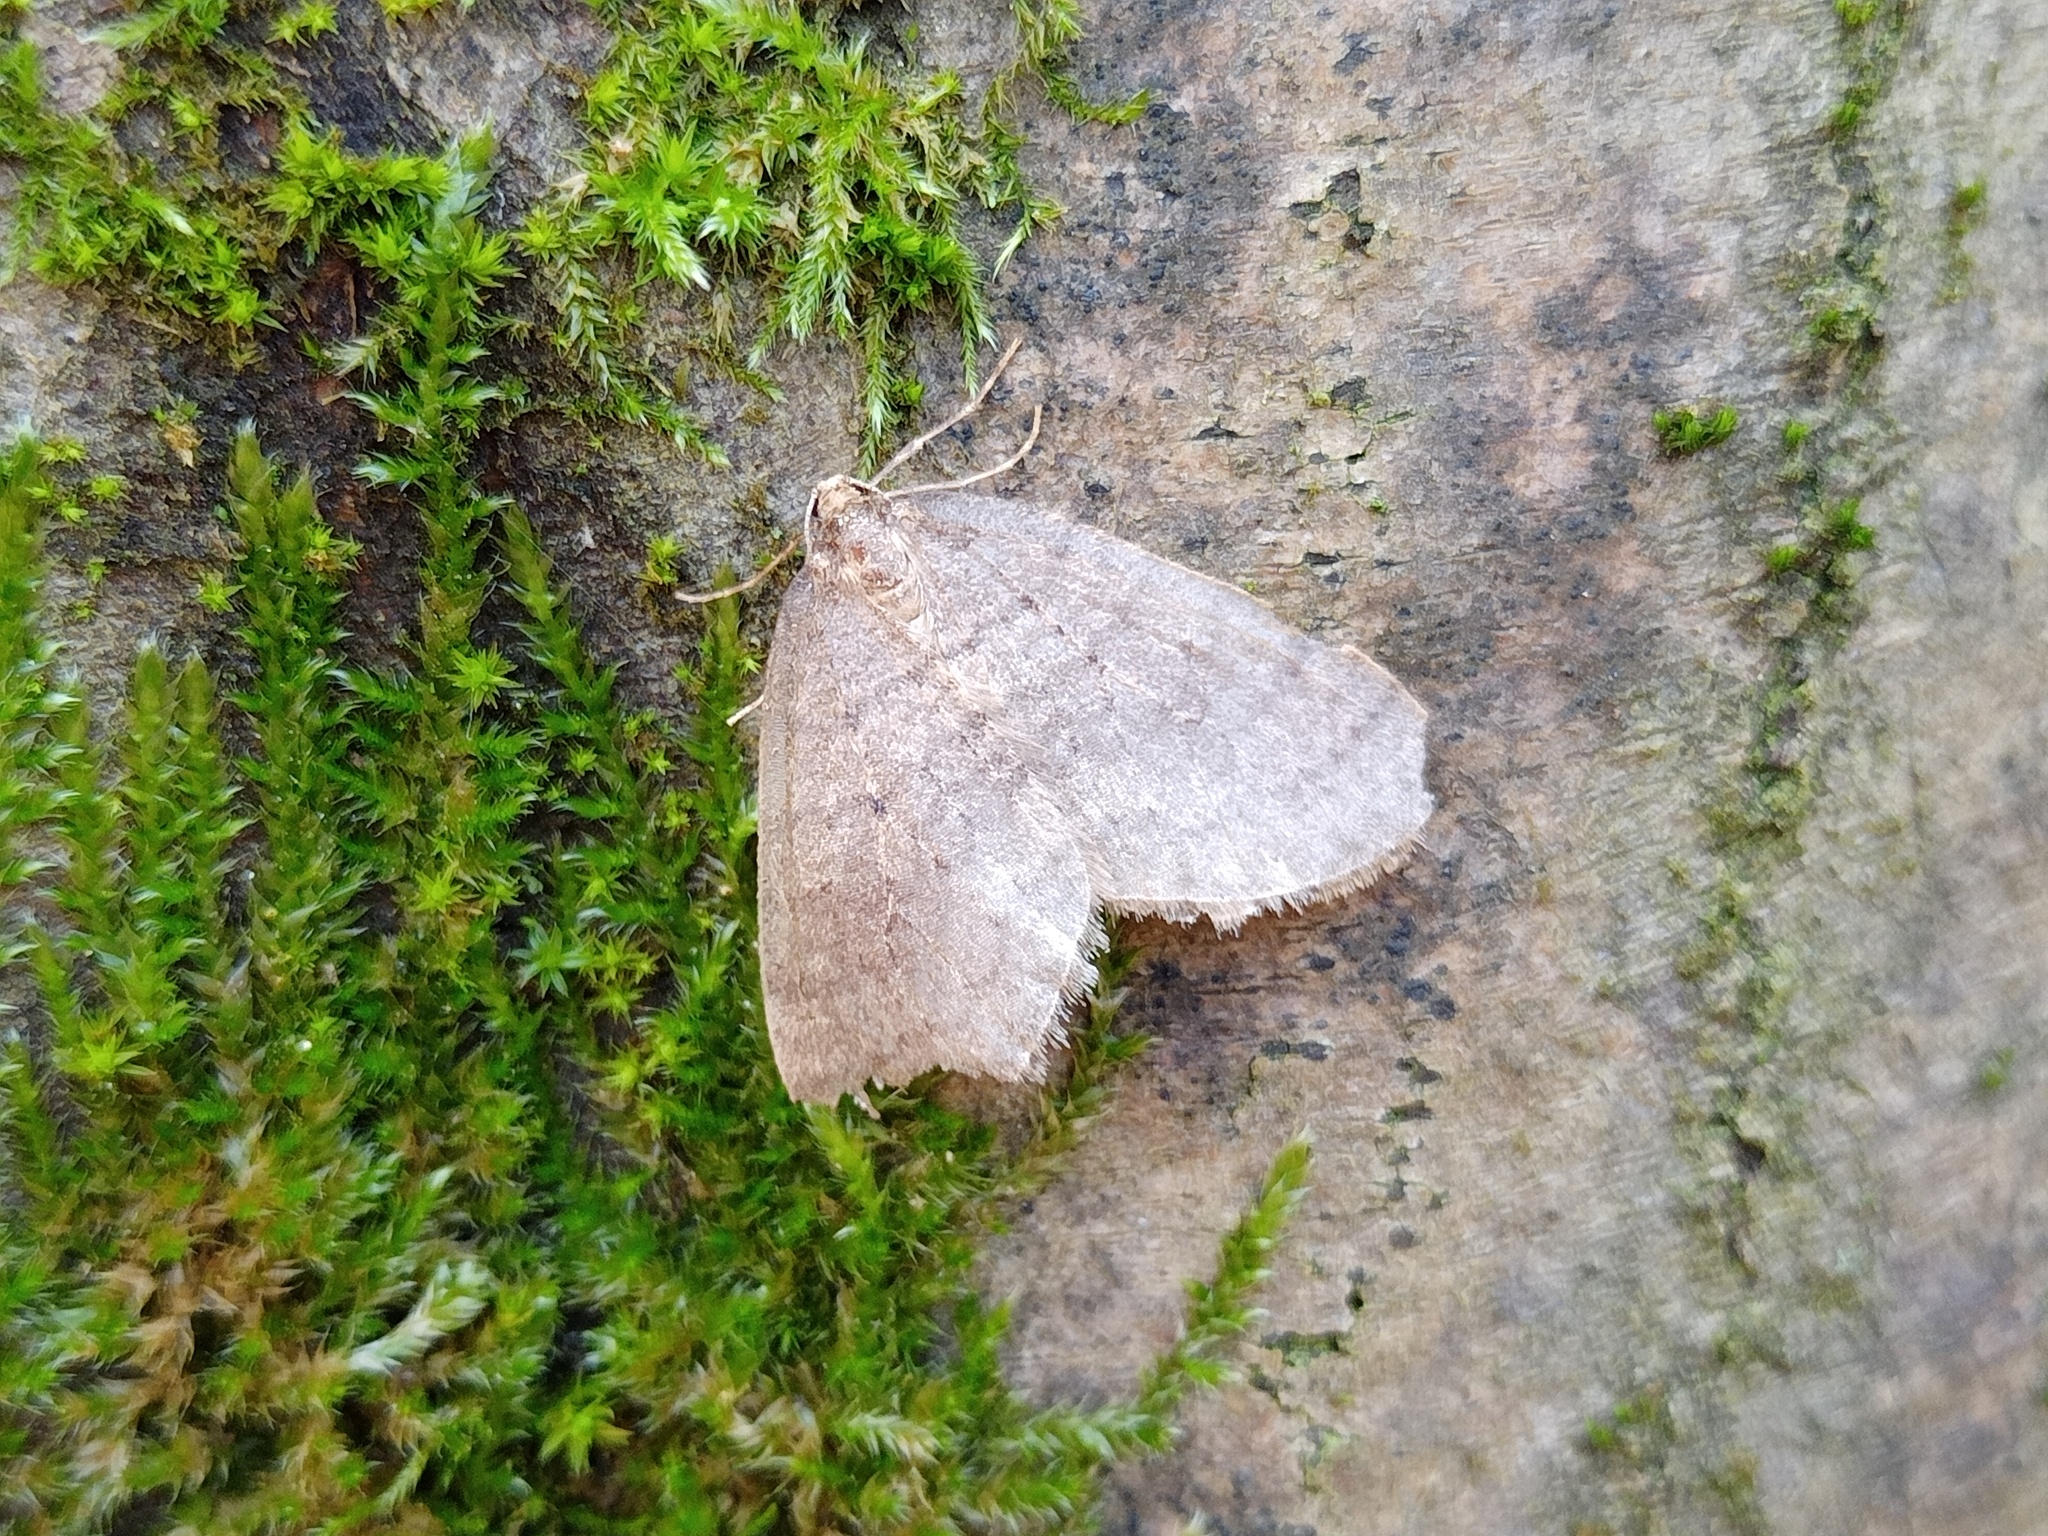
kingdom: Animalia
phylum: Arthropoda
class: Insecta
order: Lepidoptera
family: Geometridae
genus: Operophtera
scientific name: Operophtera brumata
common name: Winter moth
